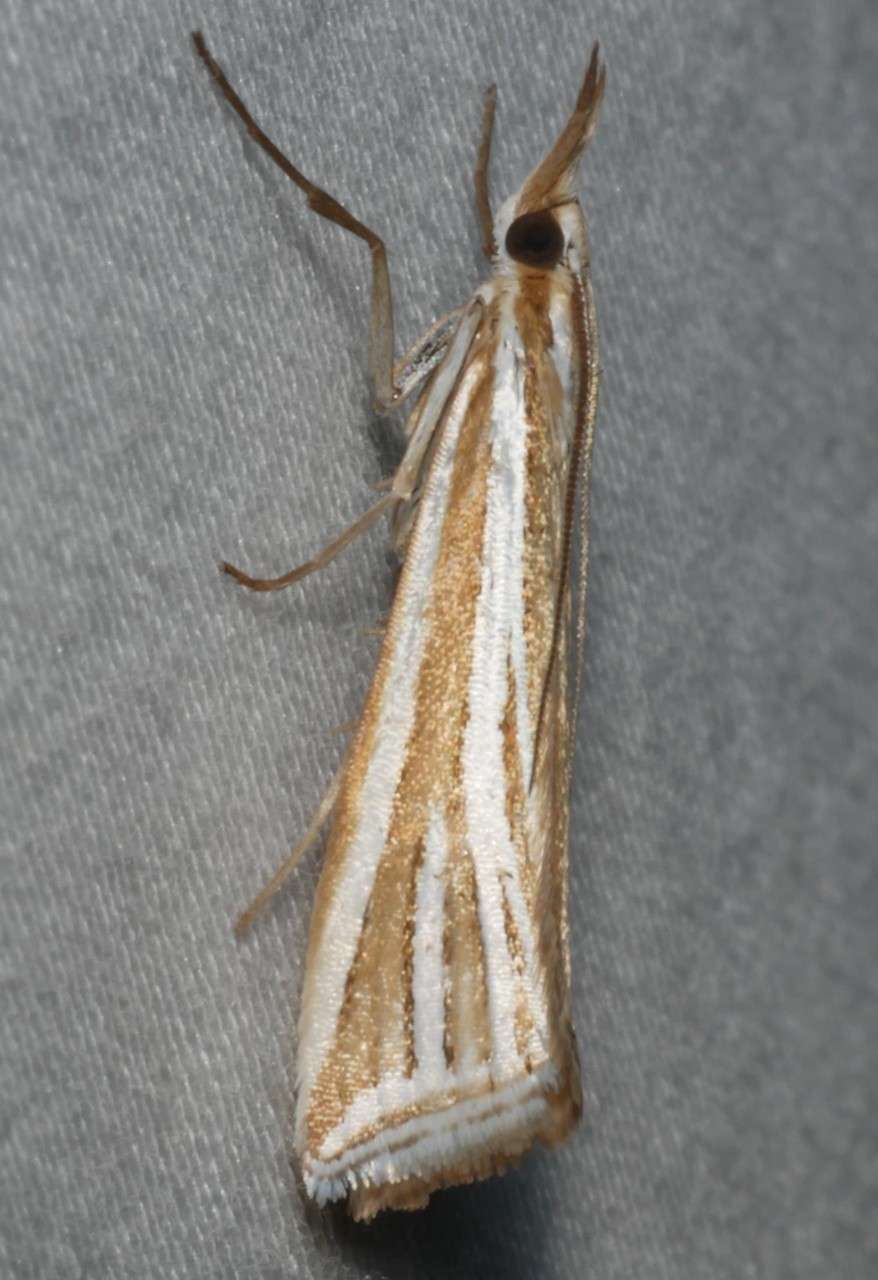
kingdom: Animalia
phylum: Arthropoda
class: Insecta
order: Lepidoptera
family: Crambidae
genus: Hednota
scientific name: Hednota relatalis
